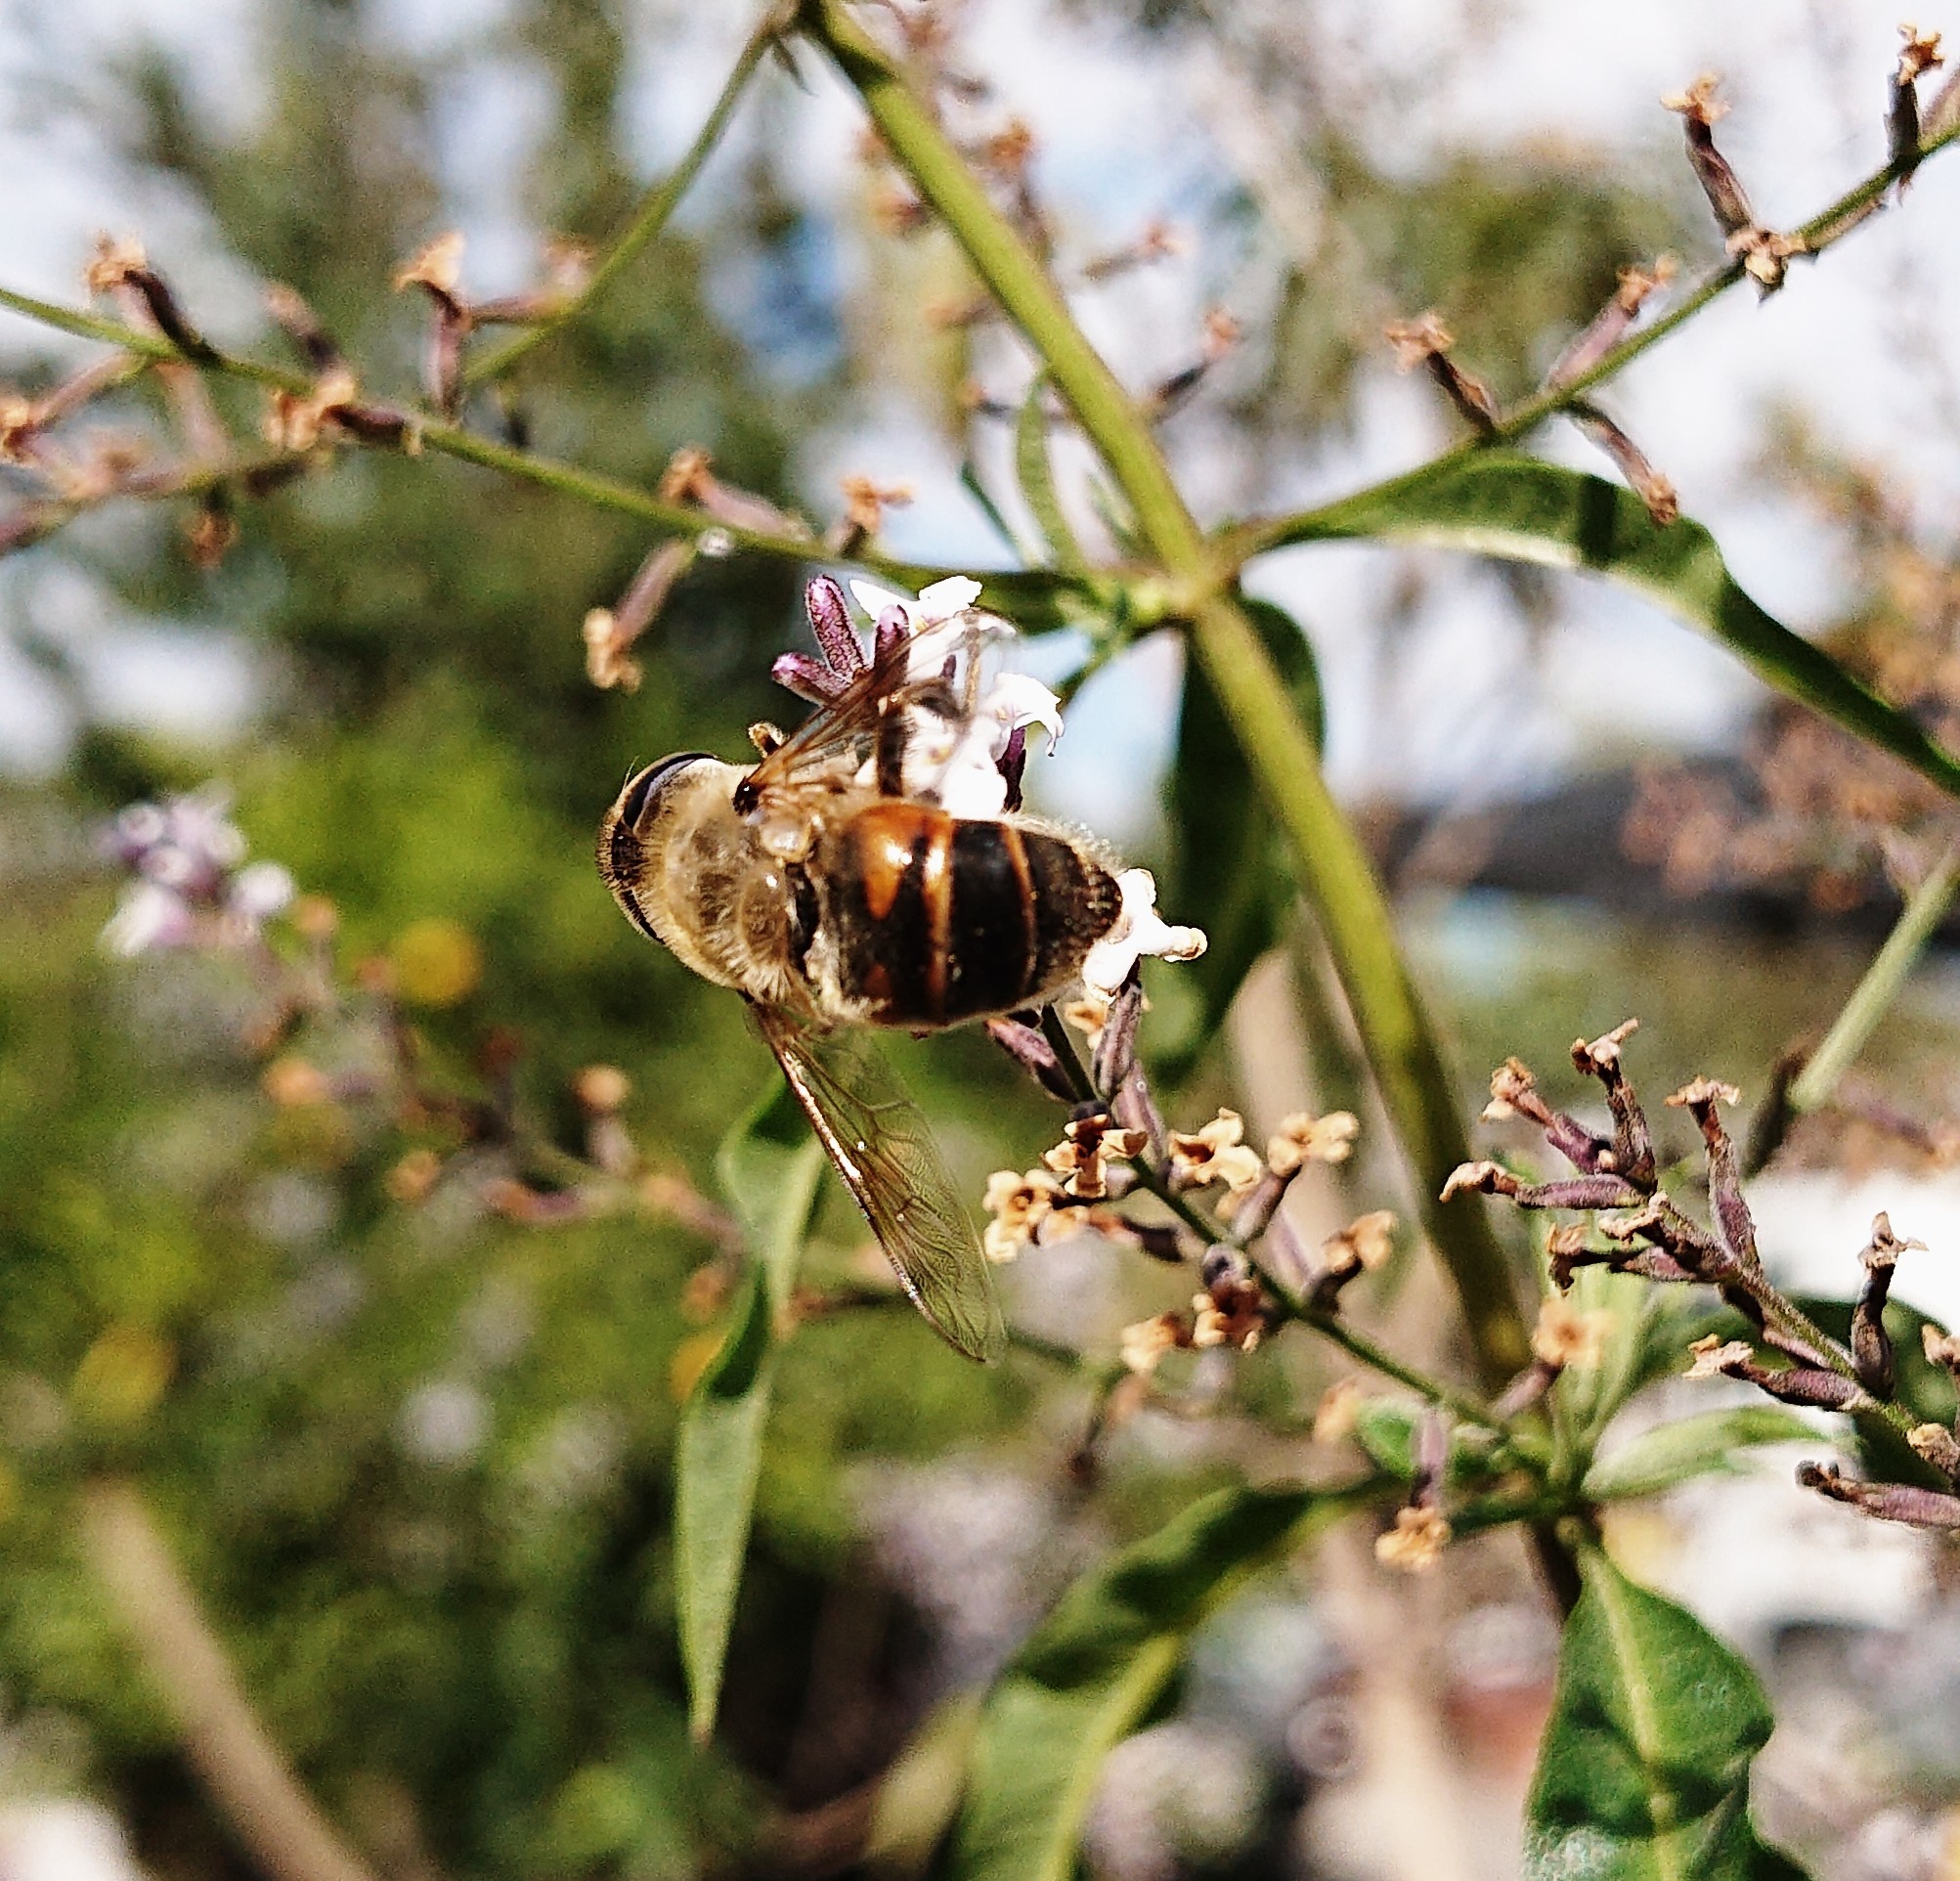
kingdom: Animalia
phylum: Arthropoda
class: Insecta
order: Diptera
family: Syrphidae
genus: Eristalis
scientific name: Eristalis tenax
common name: Drone fly
